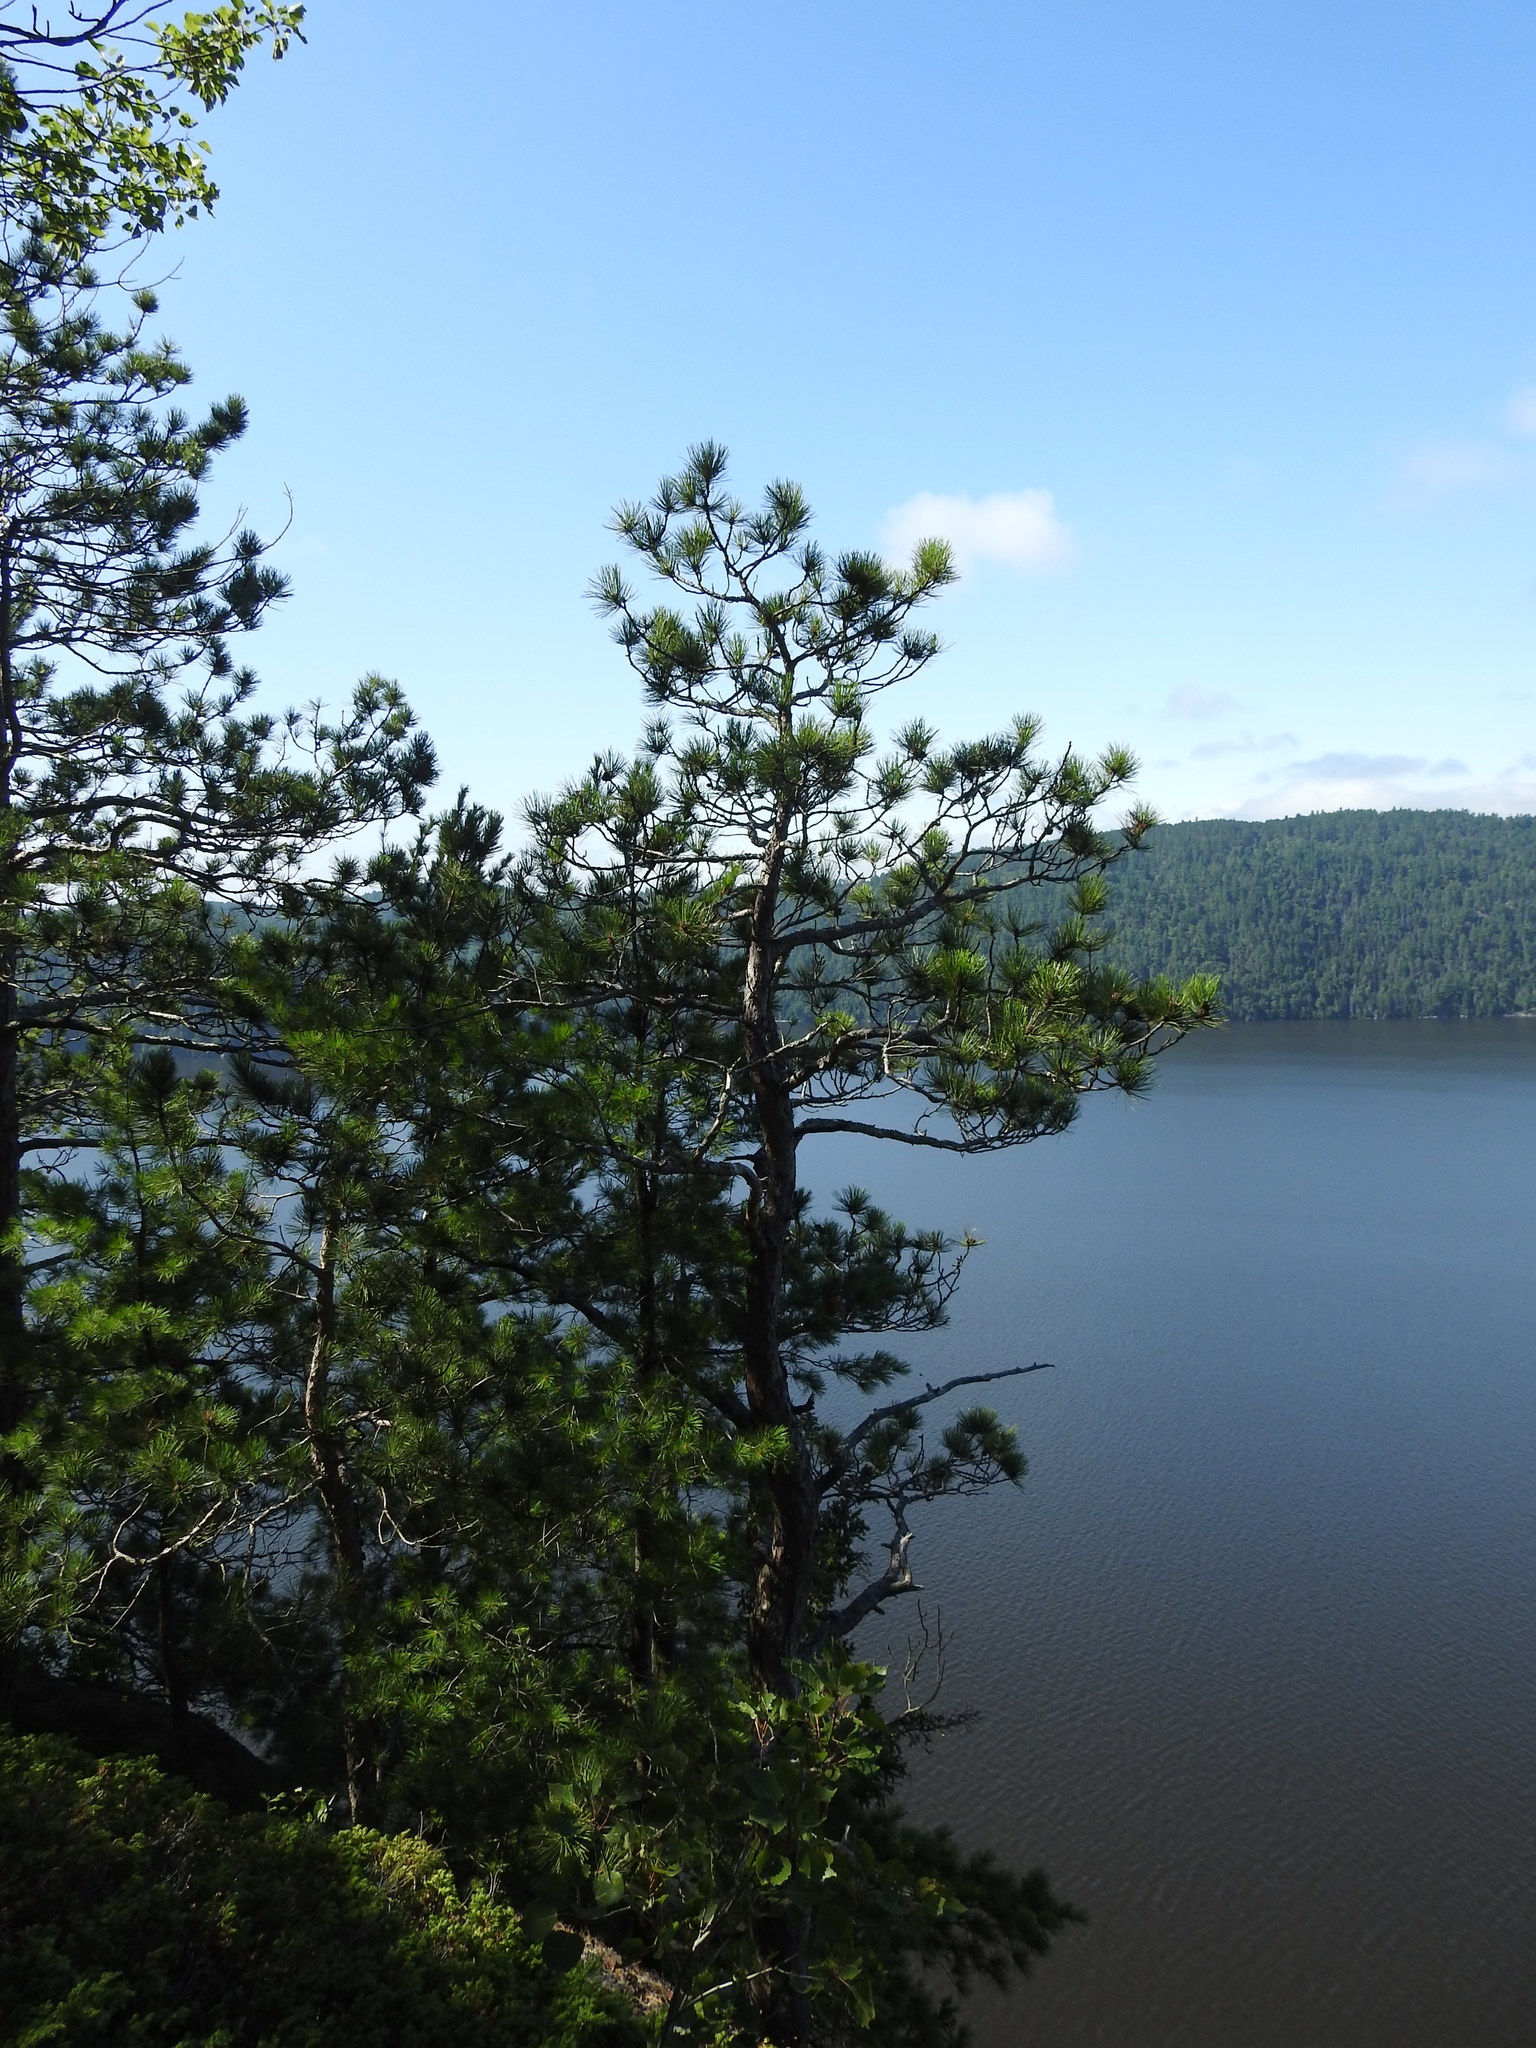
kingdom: Plantae
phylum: Tracheophyta
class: Pinopsida
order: Pinales
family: Pinaceae
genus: Pinus
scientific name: Pinus resinosa
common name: Norway pine
